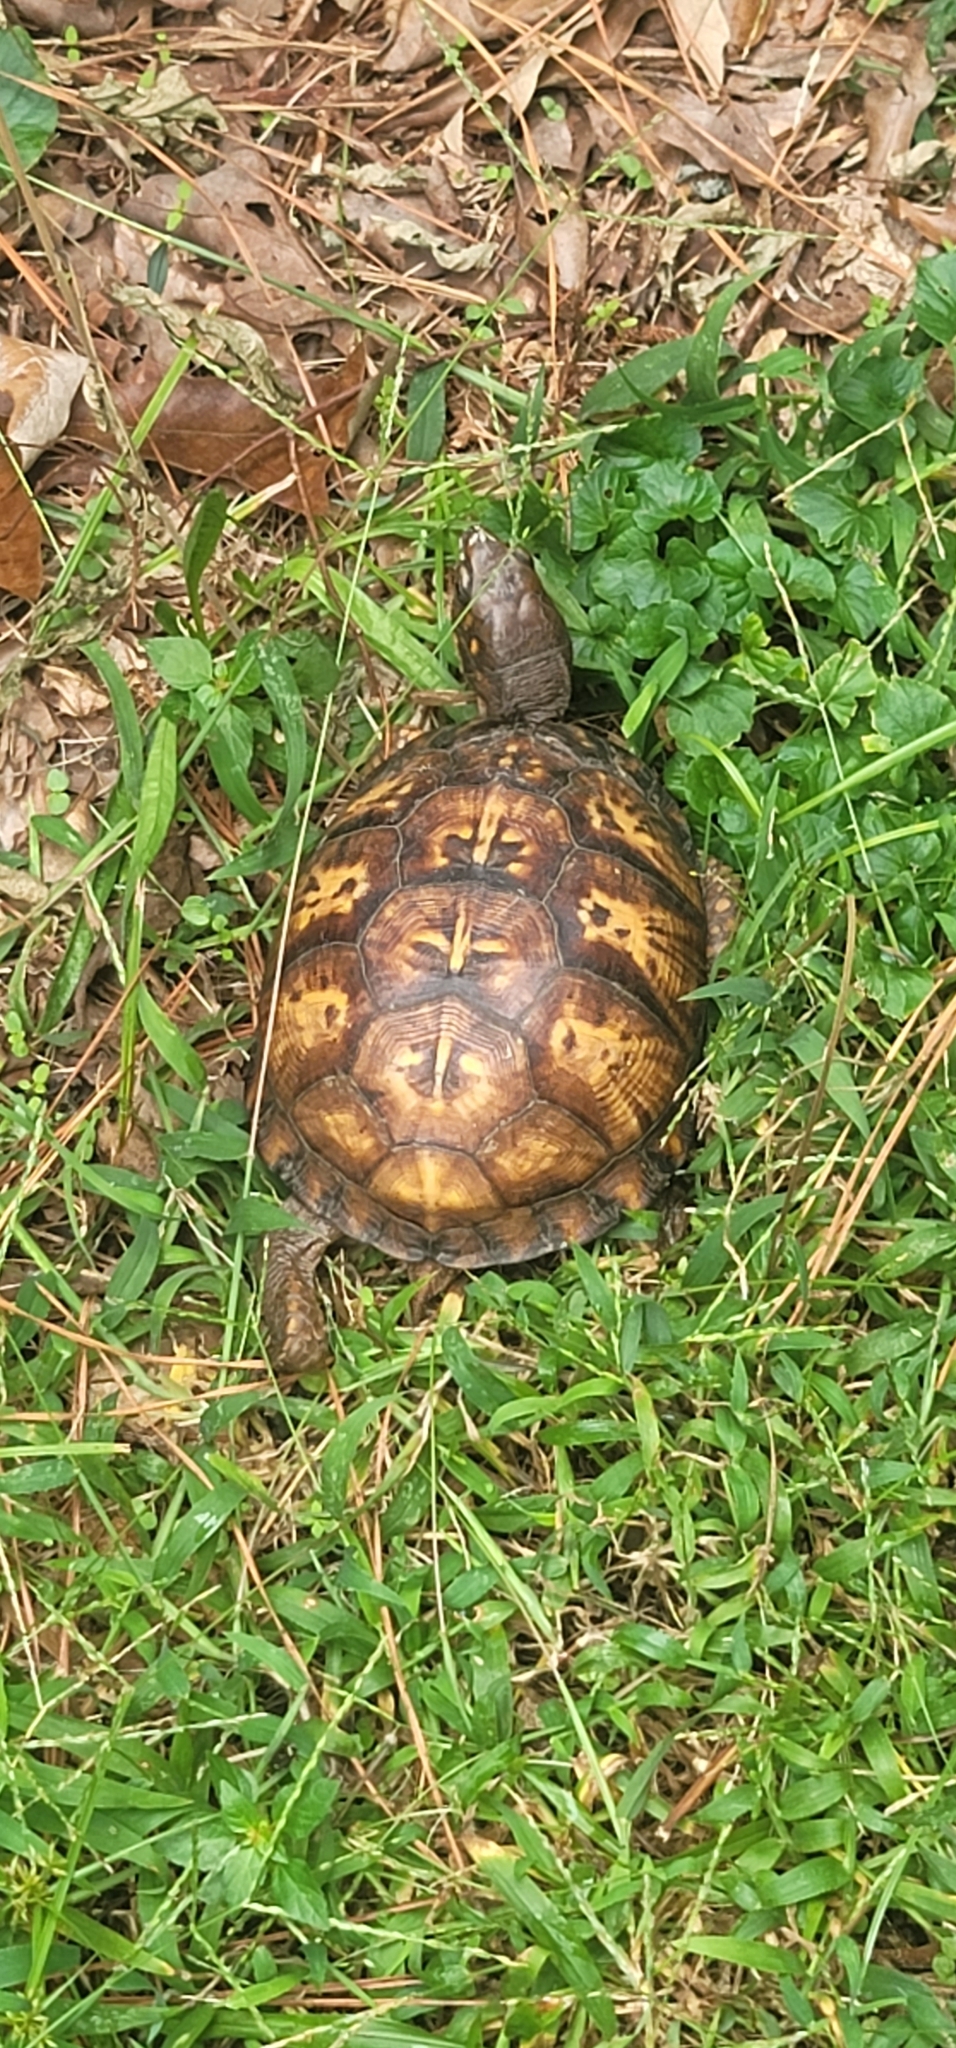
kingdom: Animalia
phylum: Chordata
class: Testudines
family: Emydidae
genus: Terrapene
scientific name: Terrapene carolina
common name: Common box turtle
